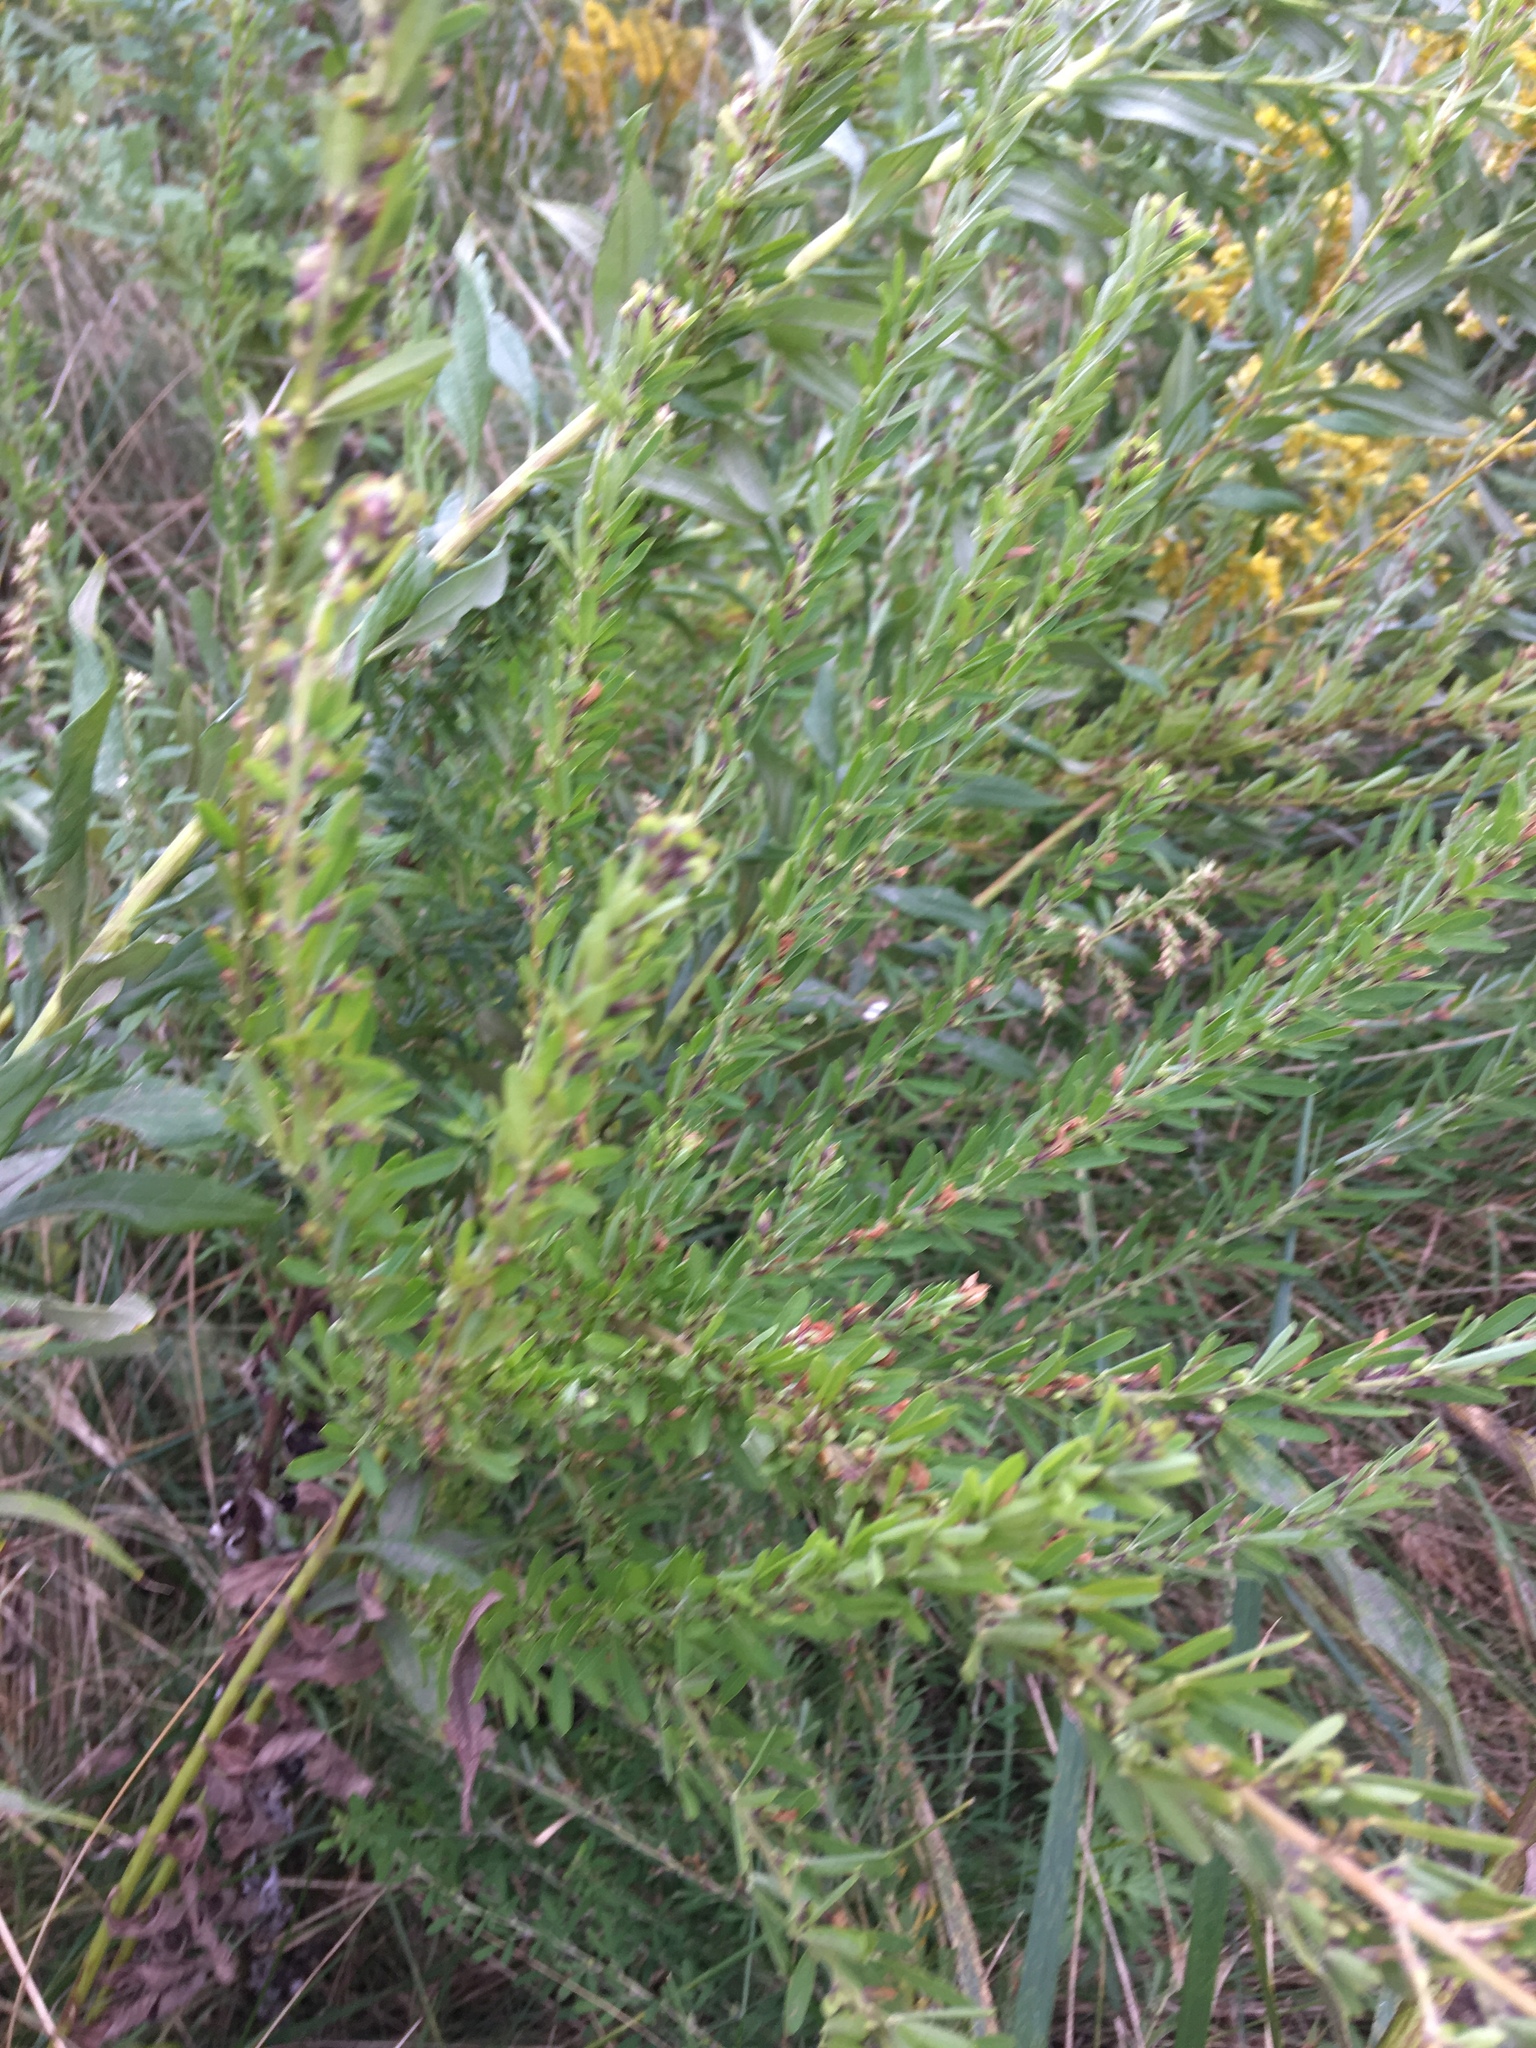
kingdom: Plantae
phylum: Tracheophyta
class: Magnoliopsida
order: Fabales
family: Fabaceae
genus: Lespedeza
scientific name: Lespedeza cuneata
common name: Chinese bush-clover
